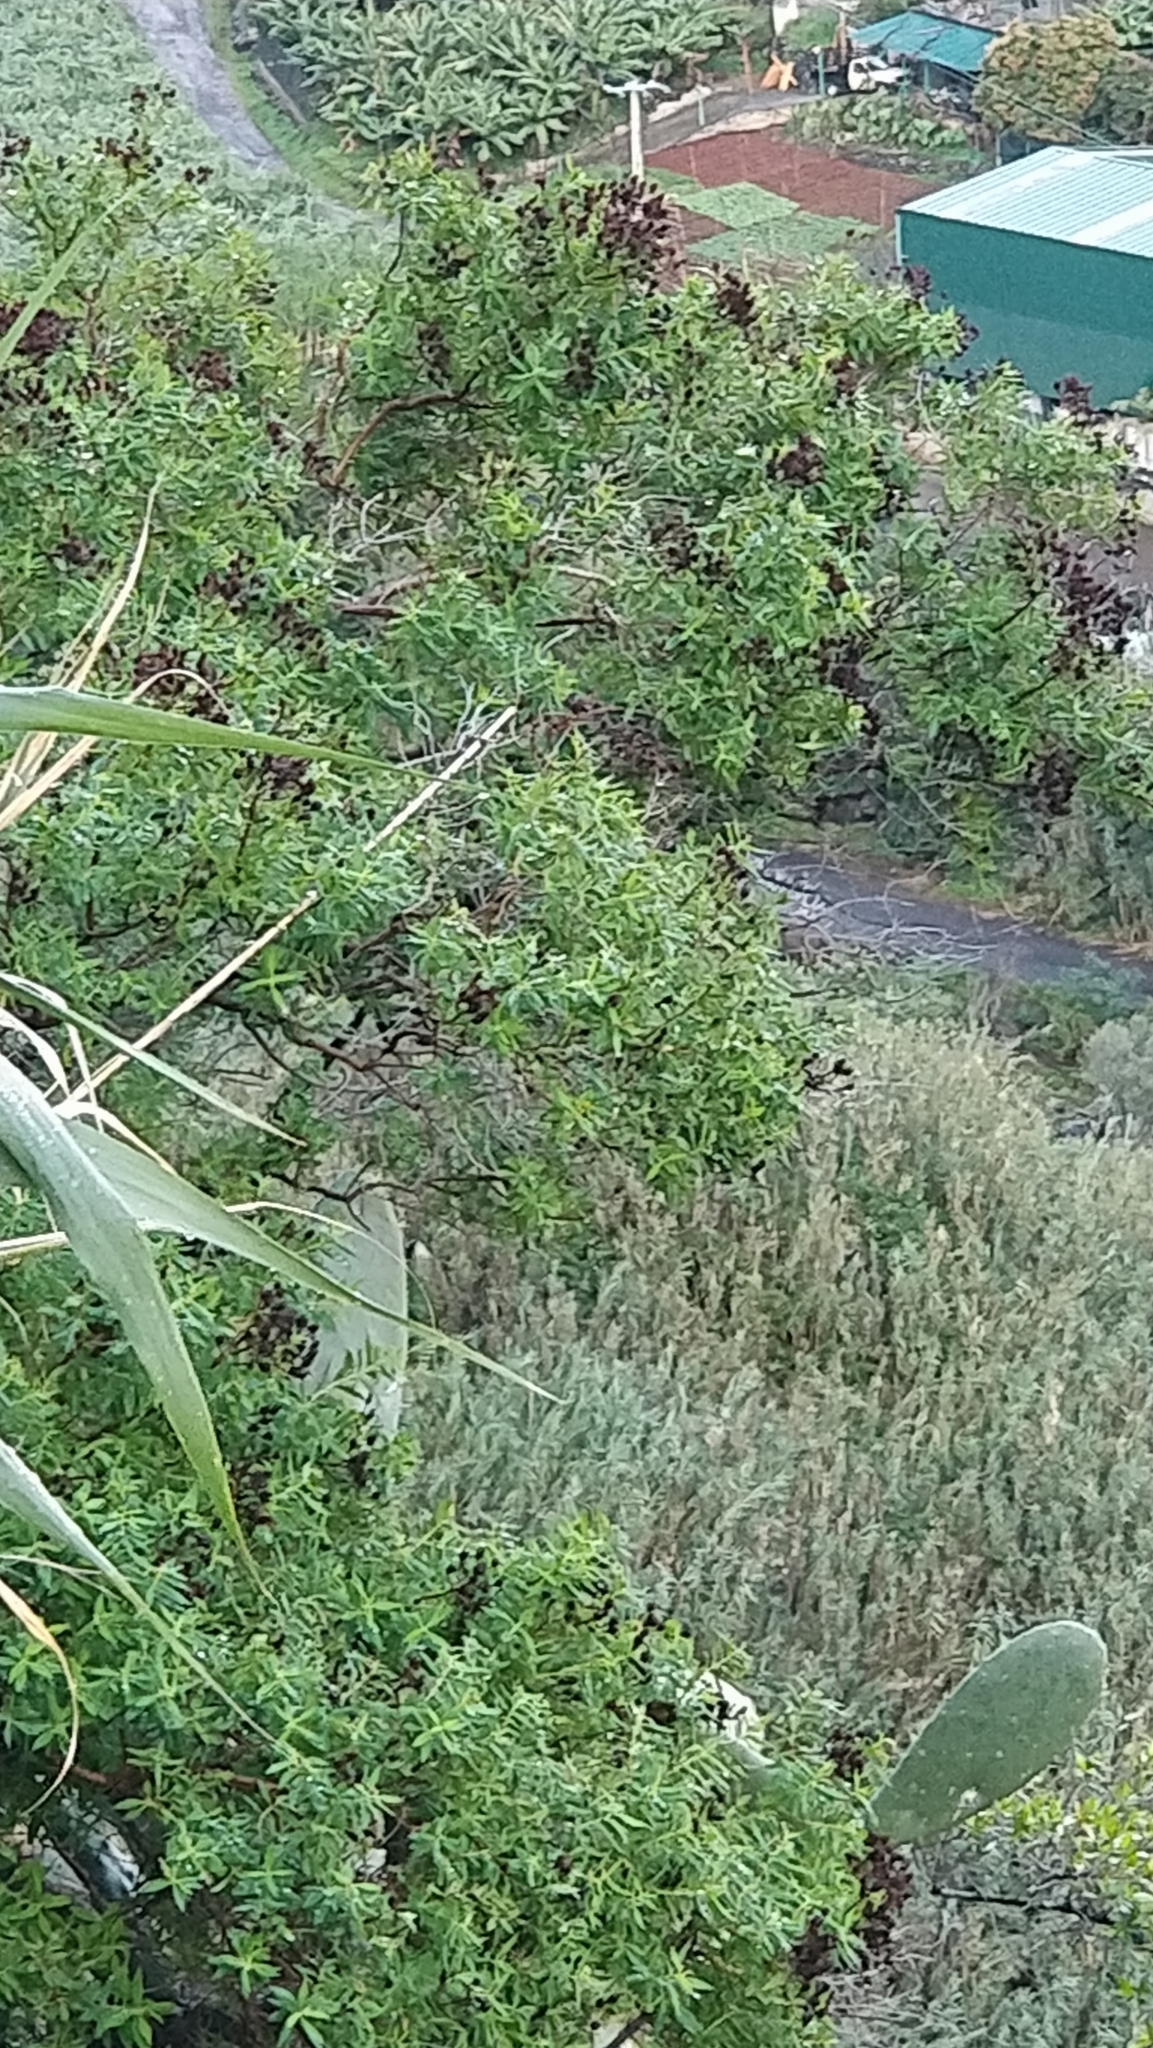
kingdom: Plantae
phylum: Tracheophyta
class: Magnoliopsida
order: Malpighiales
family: Hypericaceae
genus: Hypericum
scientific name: Hypericum canariense
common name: Canary island st. johnswort
